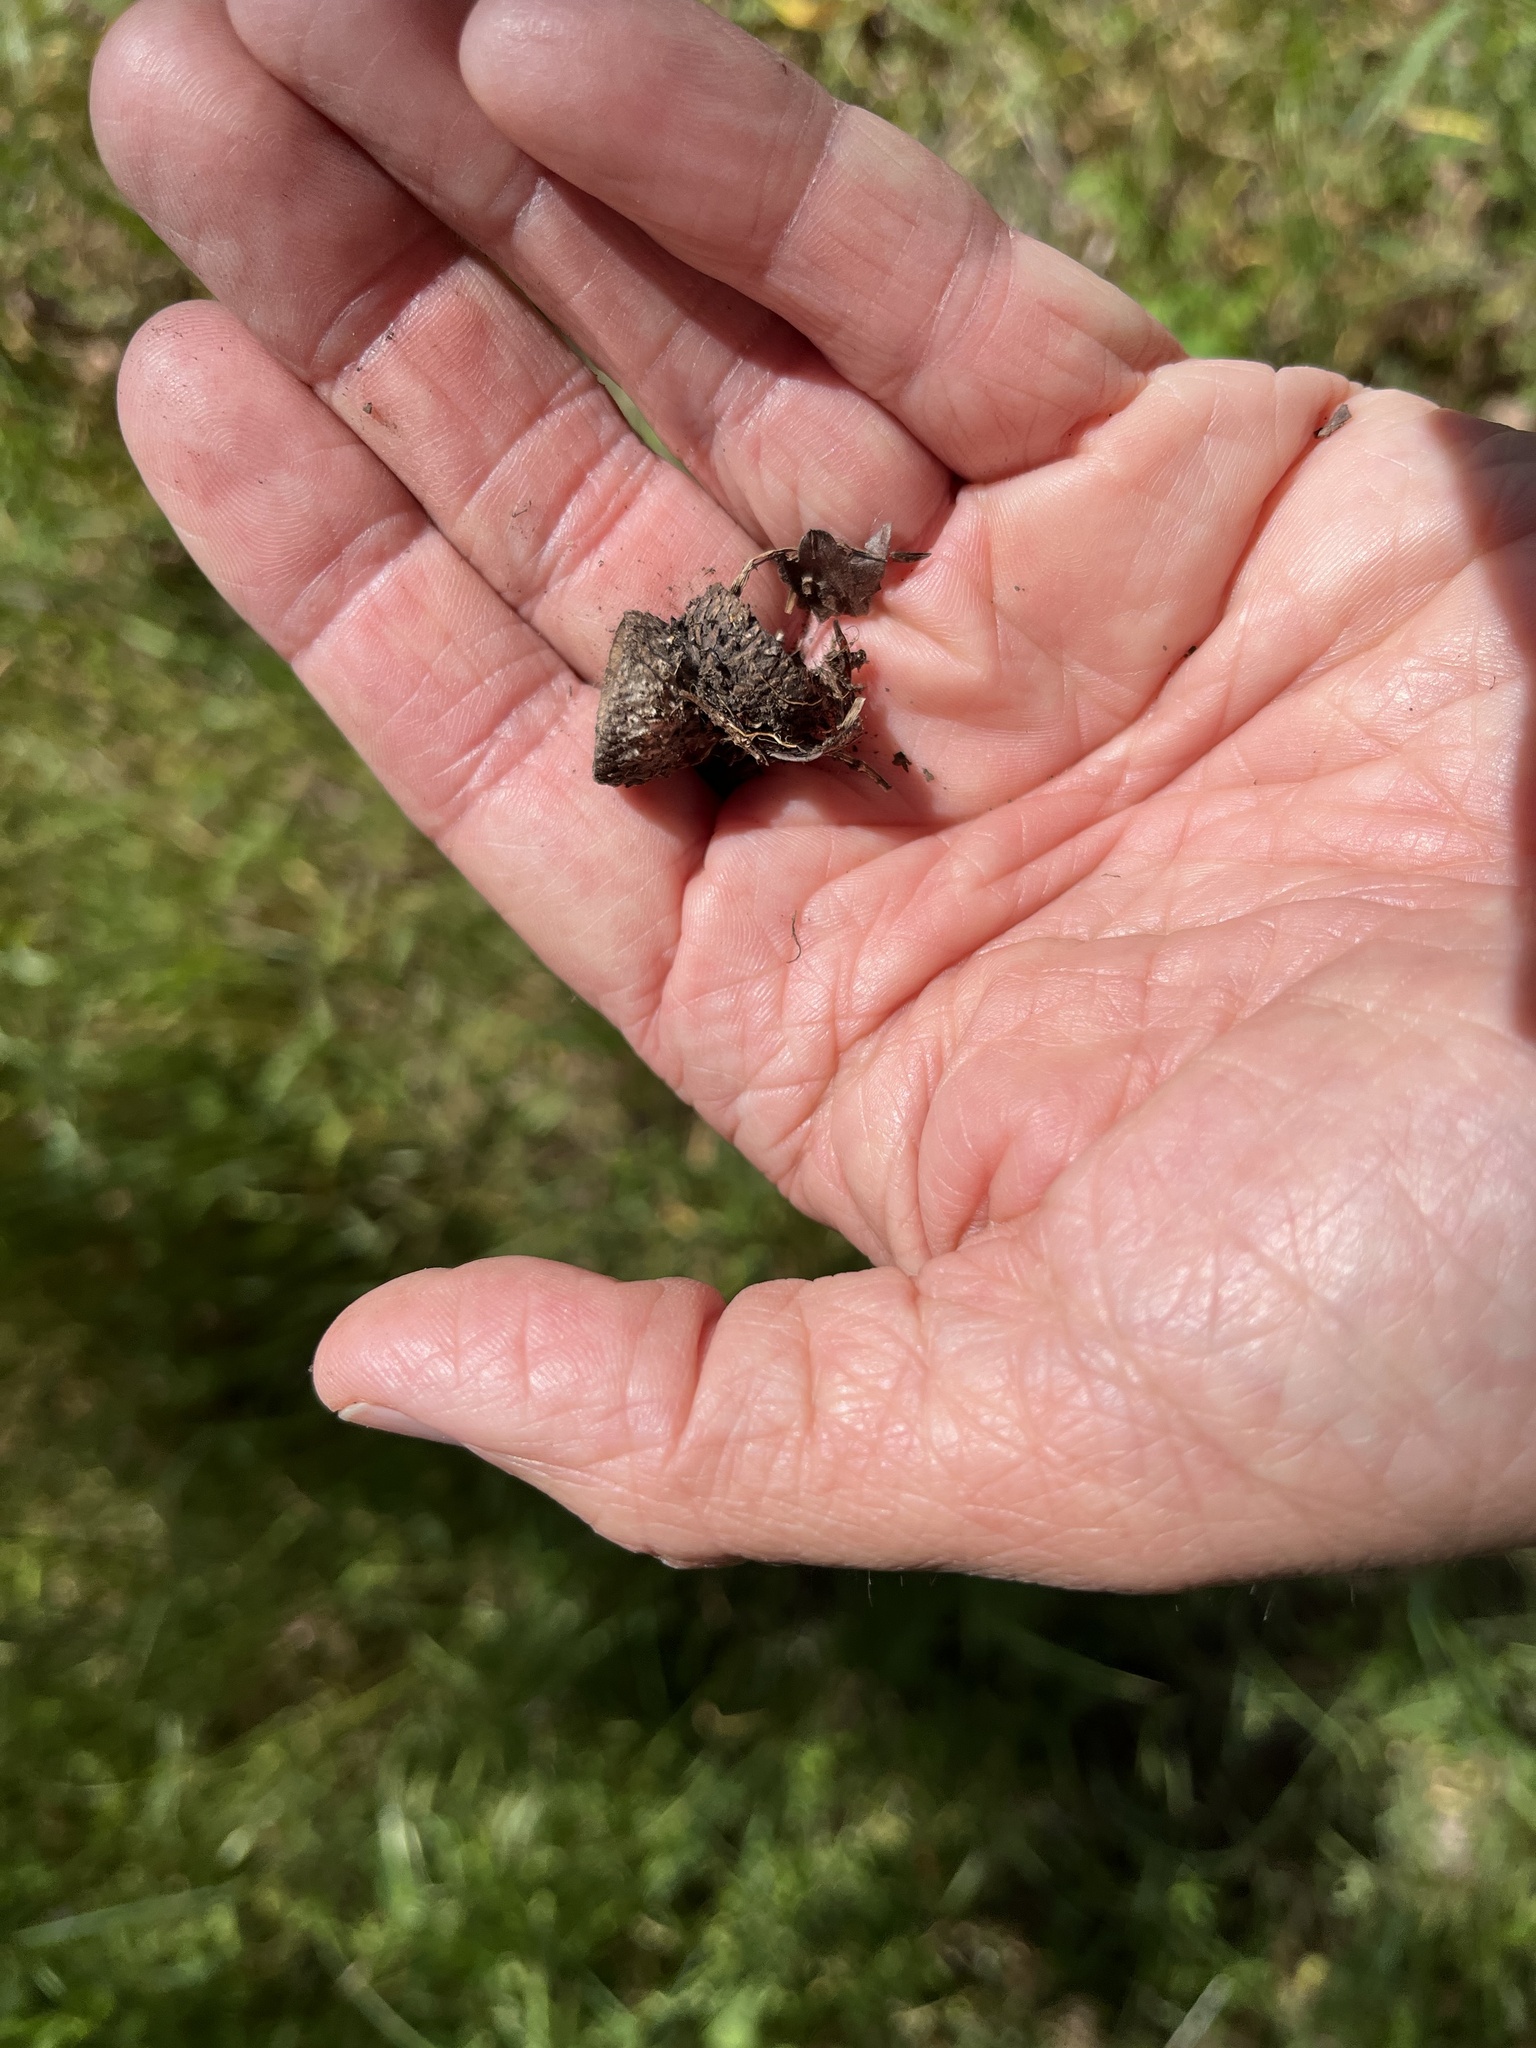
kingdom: Plantae
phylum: Tracheophyta
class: Magnoliopsida
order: Fagales
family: Fagaceae
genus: Quercus
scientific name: Quercus garryana
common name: Garry oak
